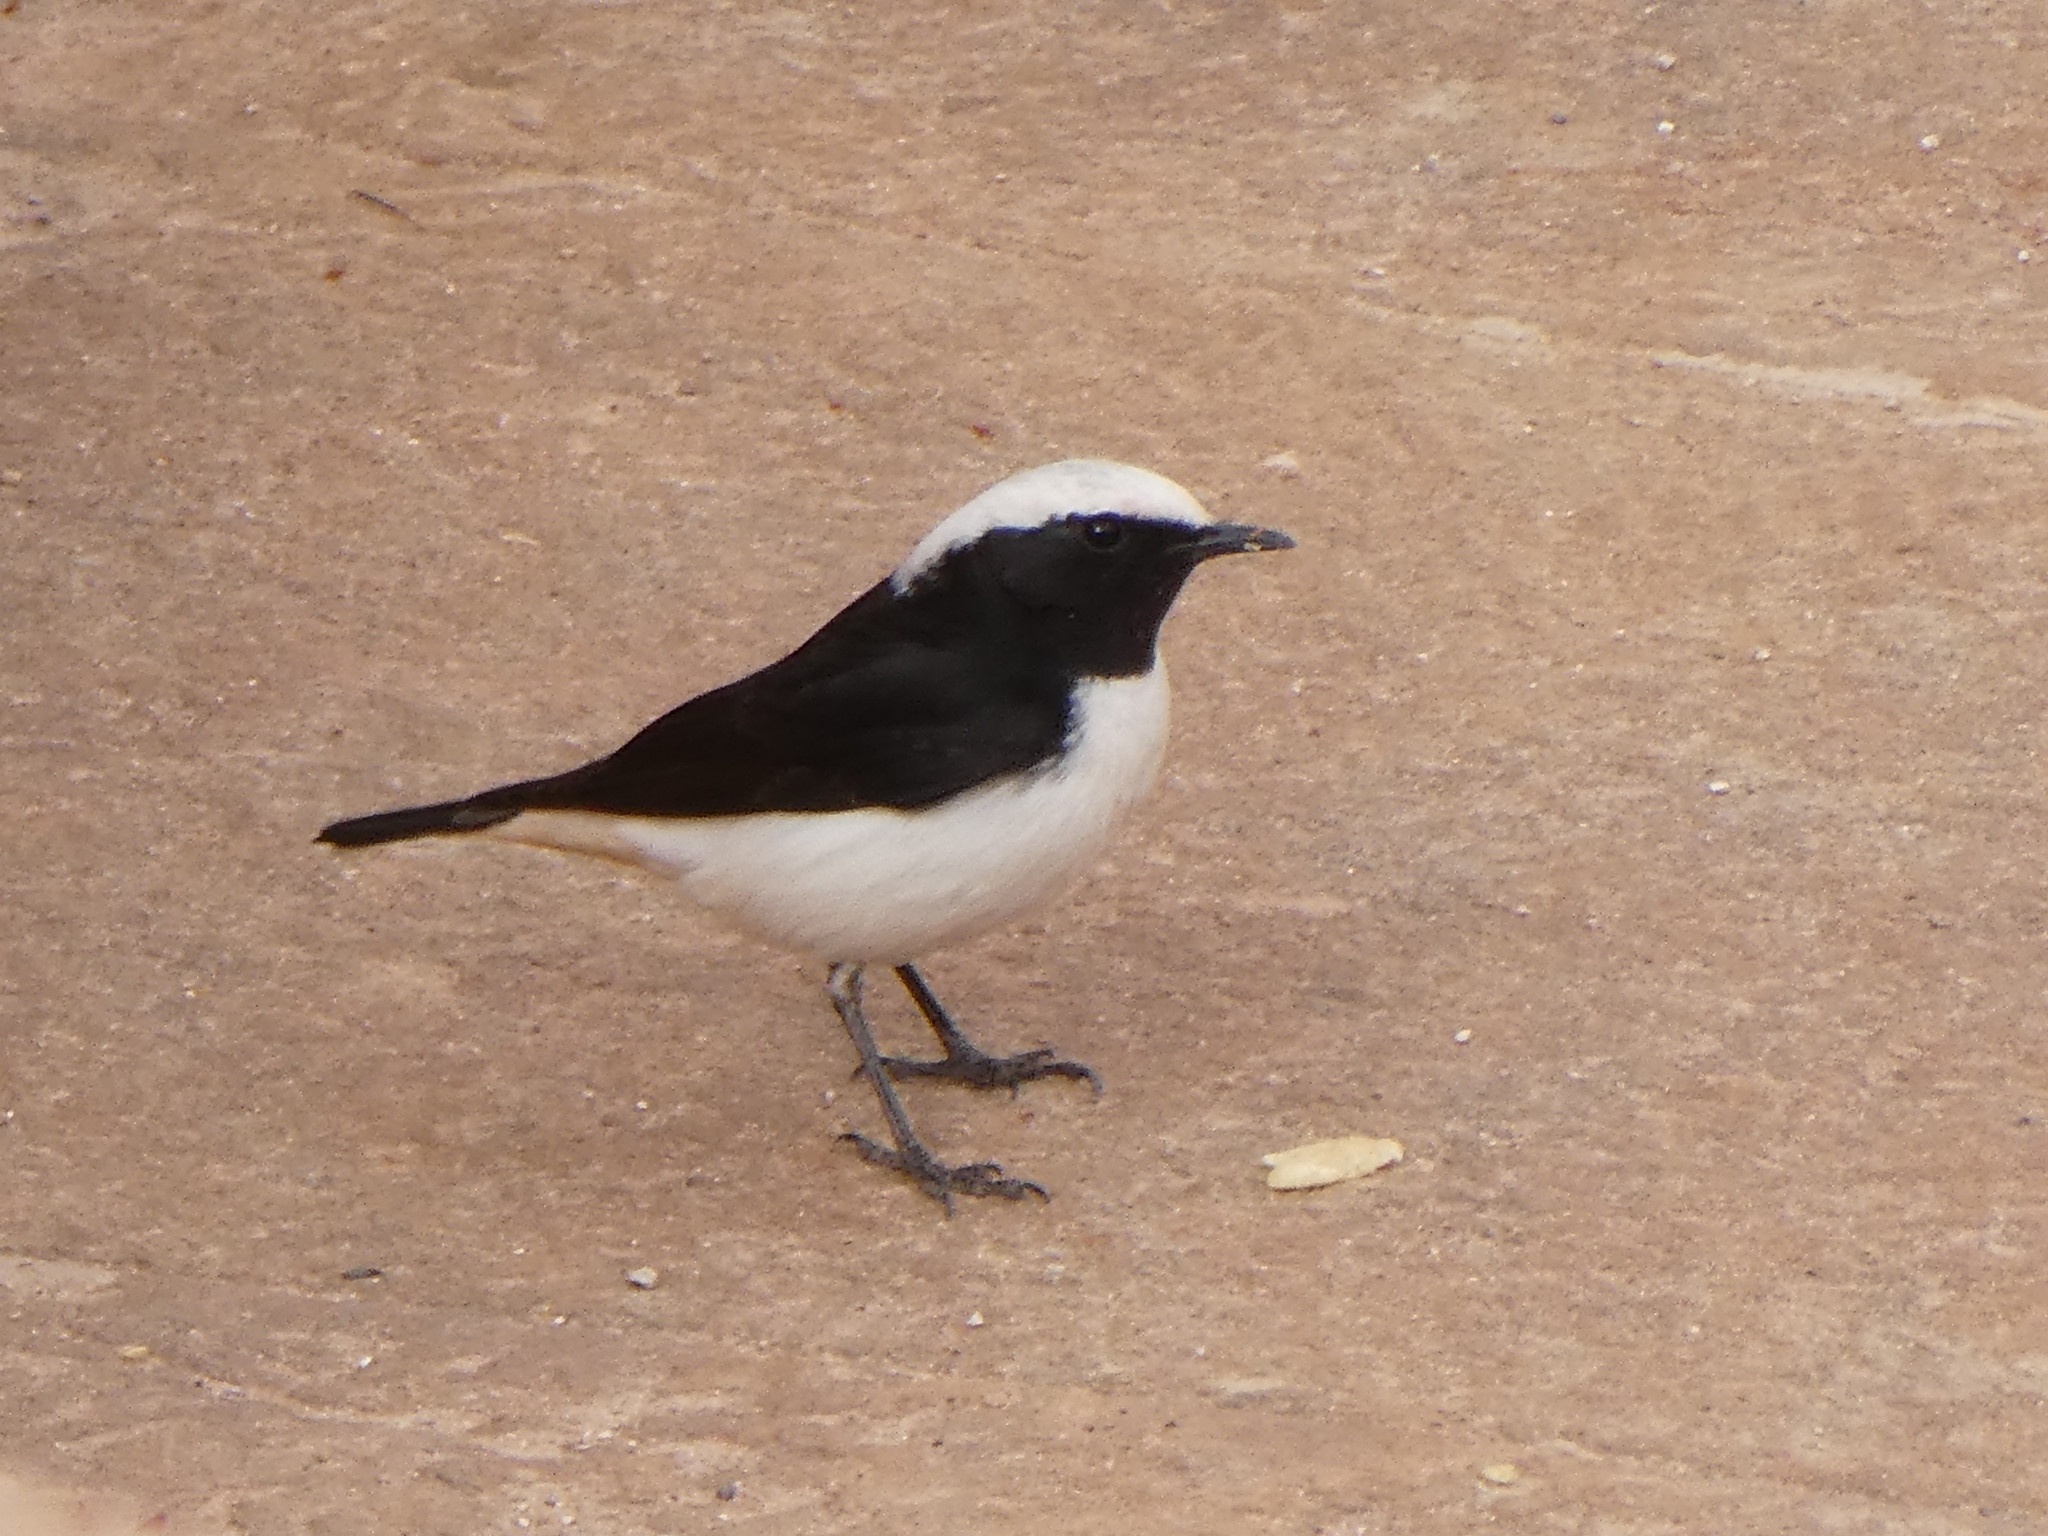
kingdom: Animalia
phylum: Chordata
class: Aves
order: Passeriformes
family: Muscicapidae
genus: Oenanthe
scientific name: Oenanthe lugens
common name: Mourning wheatear
